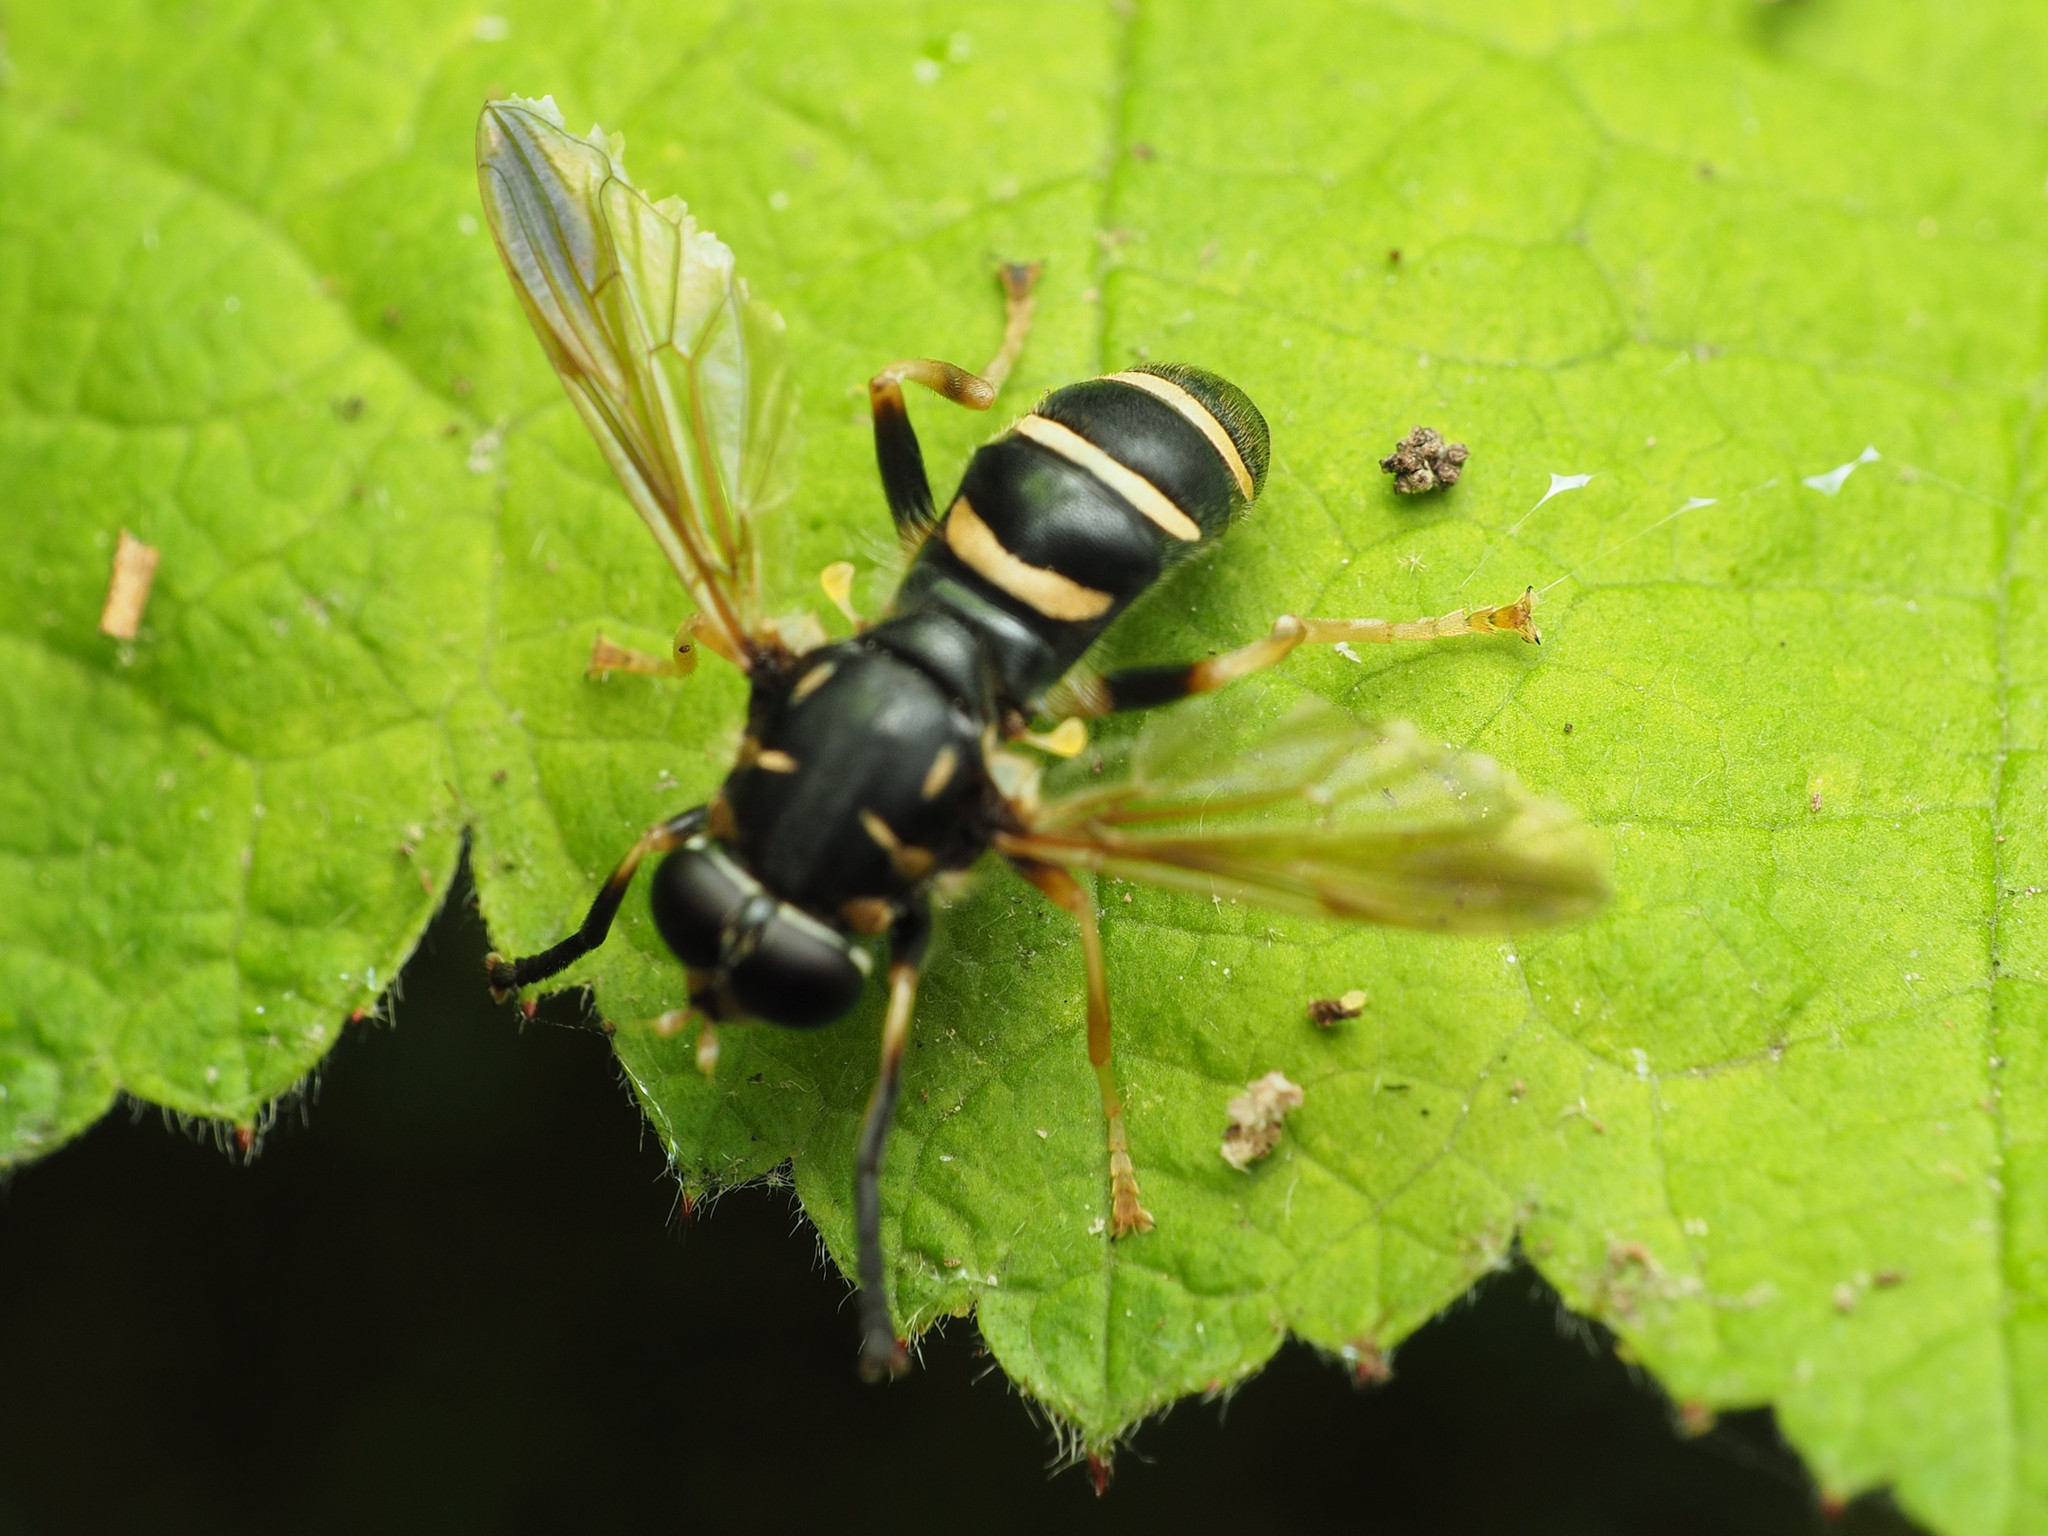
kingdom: Animalia
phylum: Arthropoda
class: Insecta
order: Diptera
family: Syrphidae
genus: Temnostoma
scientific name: Temnostoma balyras
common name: Yellow-haired falsehorn
